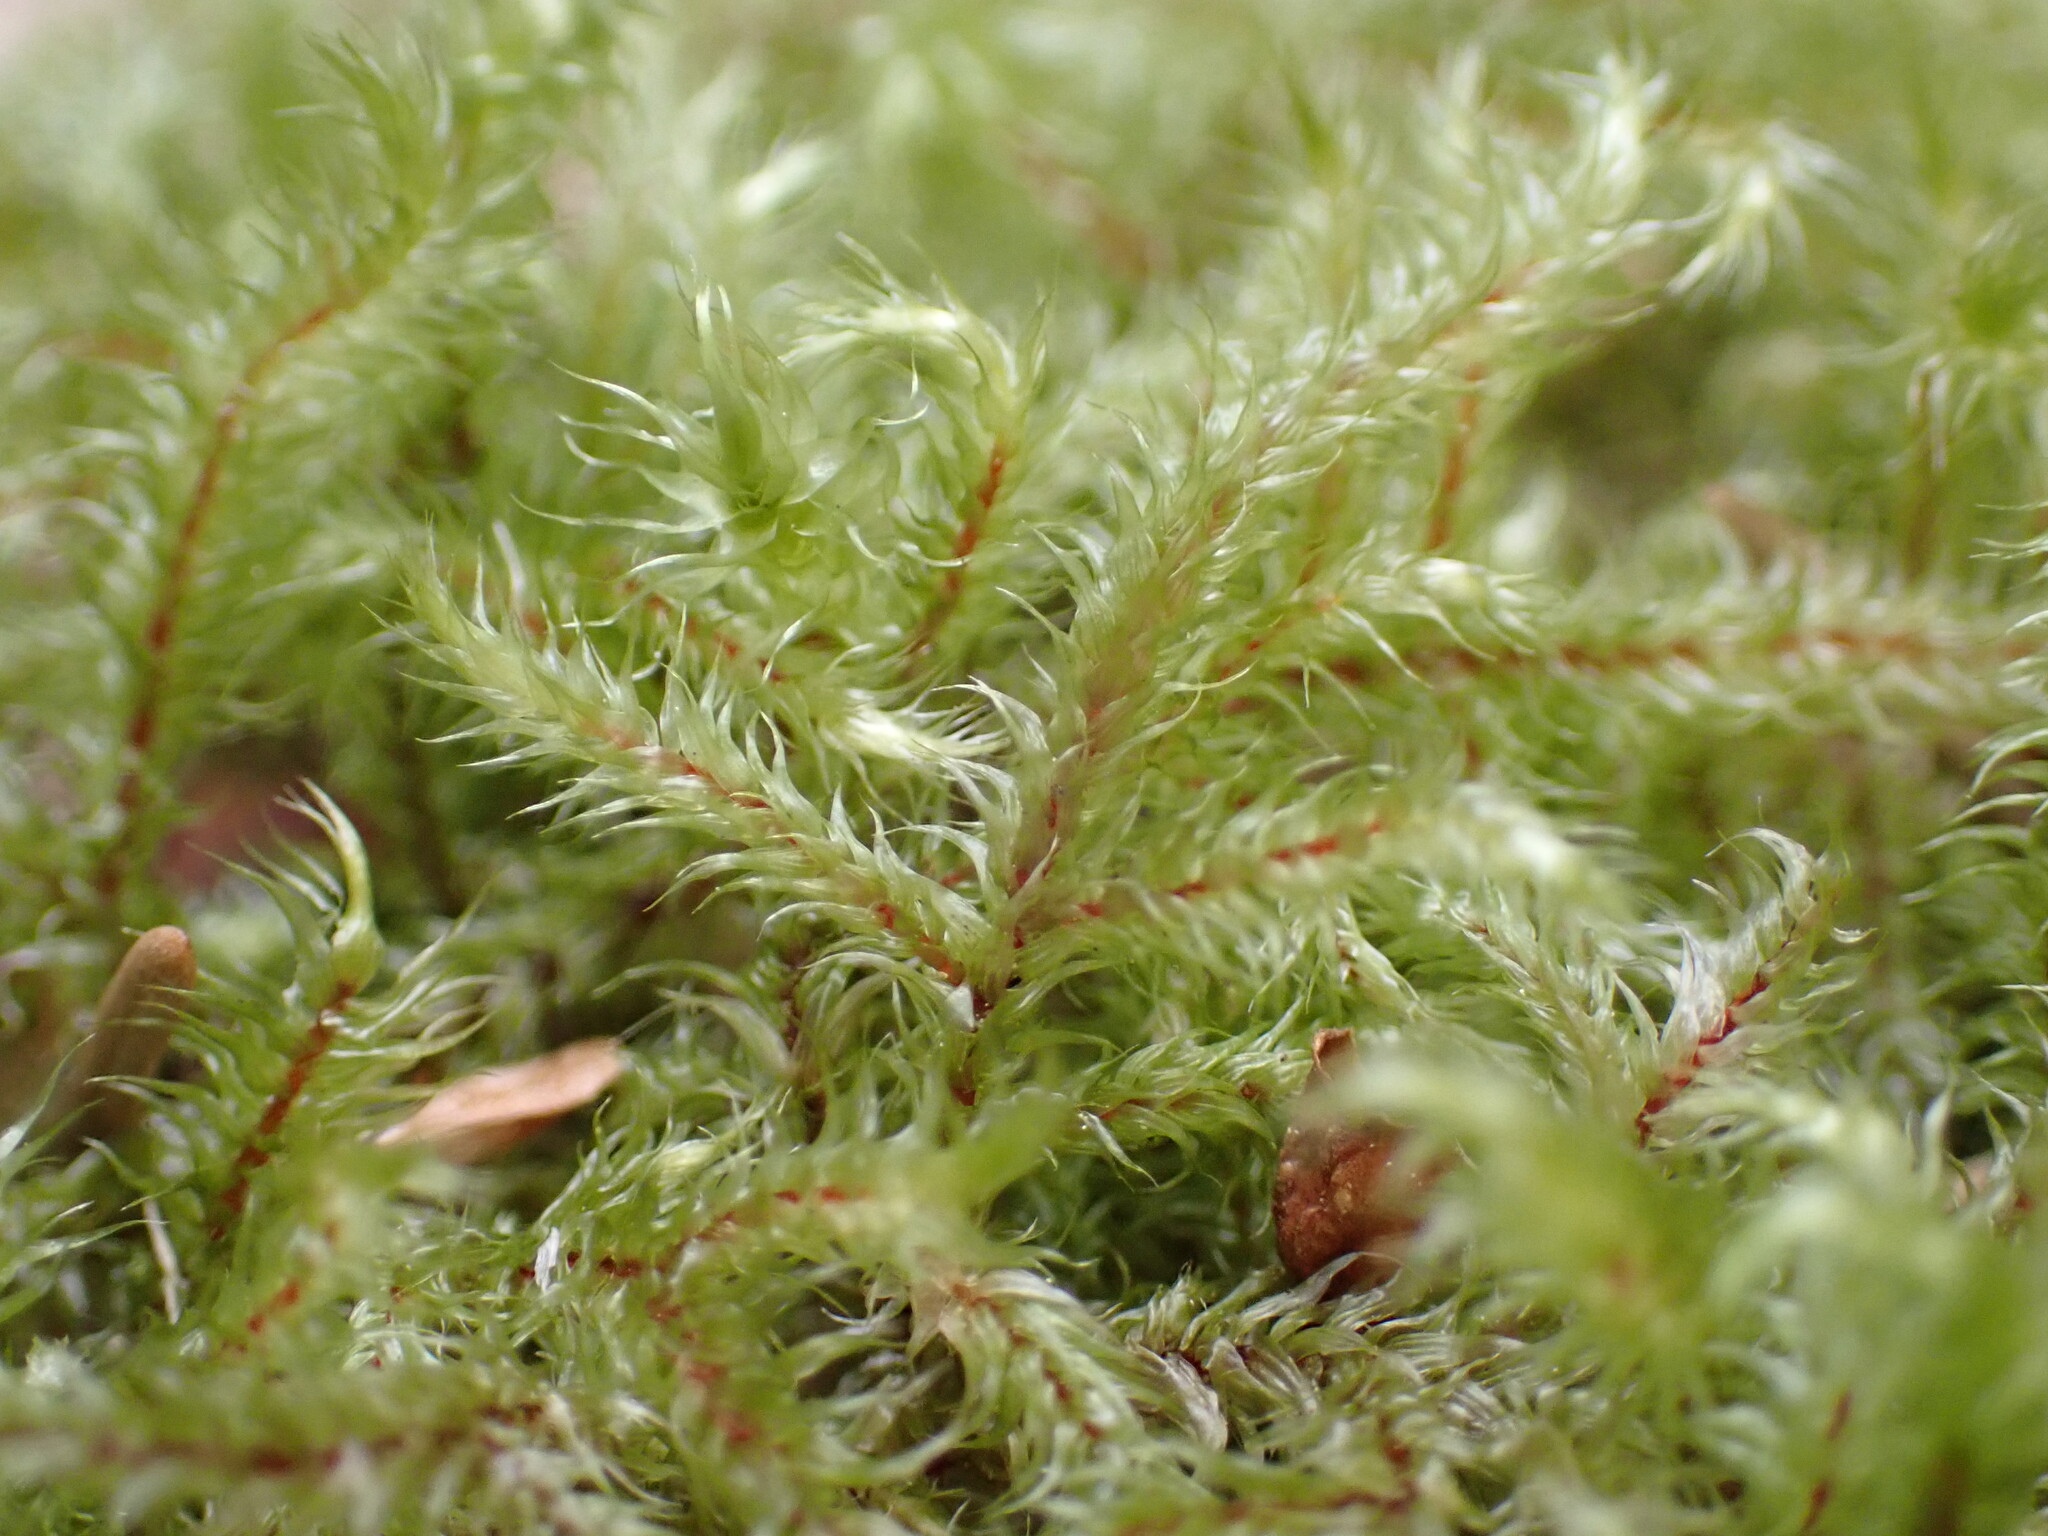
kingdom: Plantae
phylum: Bryophyta
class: Bryopsida
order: Hypnales
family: Hylocomiaceae
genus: Rhytidiadelphus
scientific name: Rhytidiadelphus loreus
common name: Lanky moss
